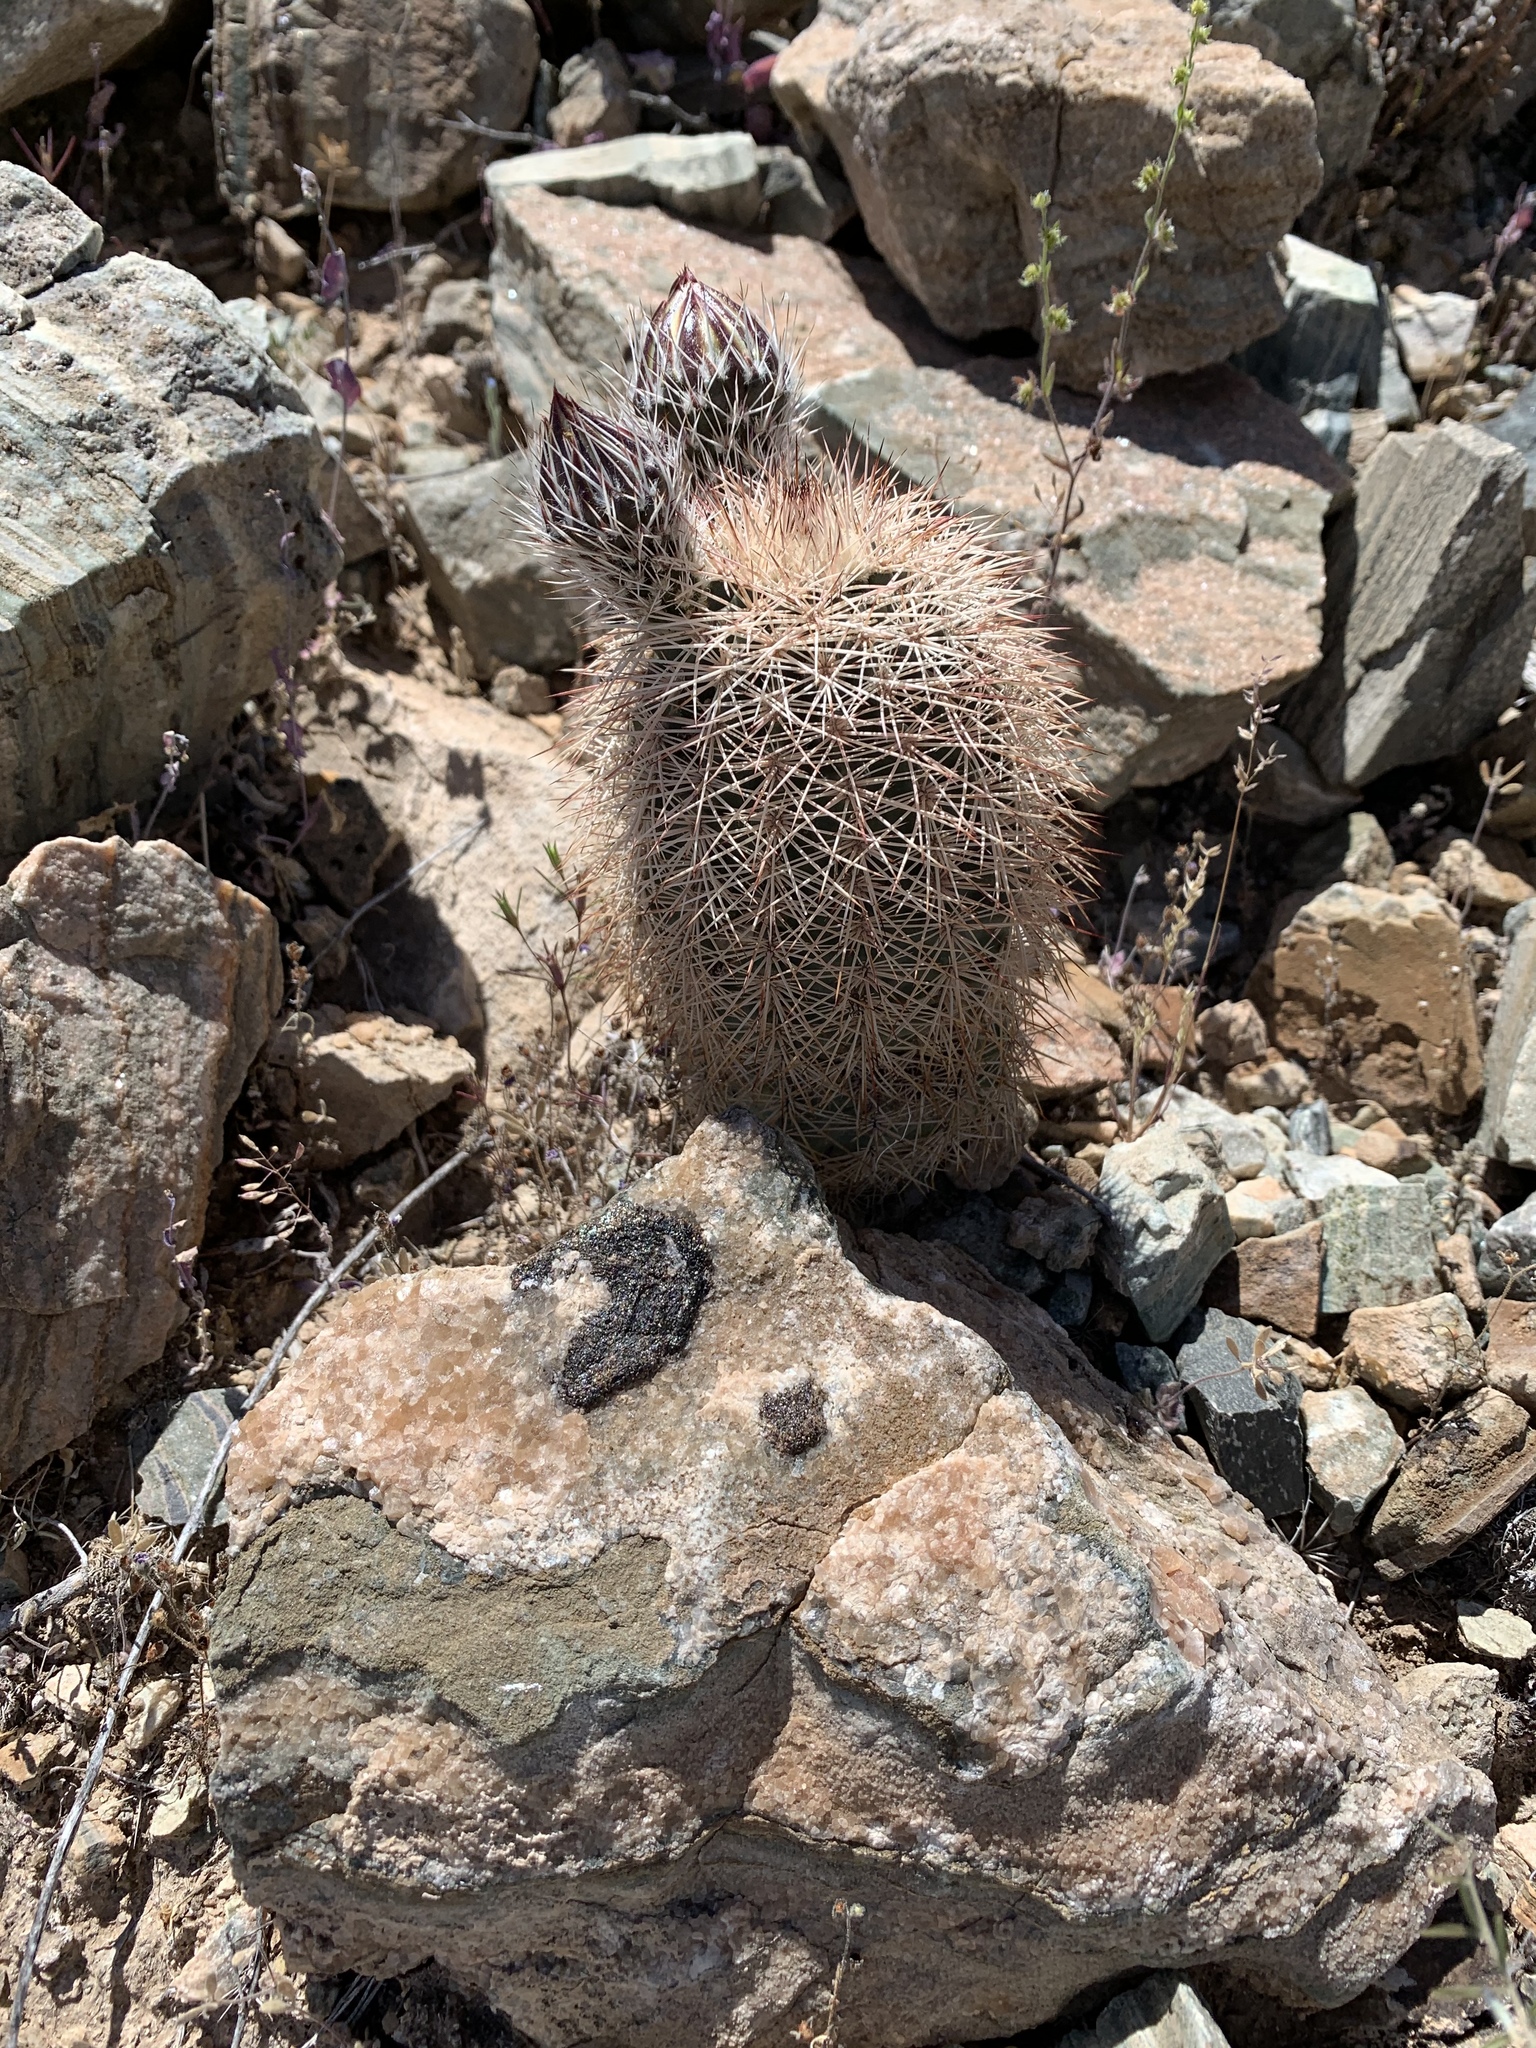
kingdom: Plantae
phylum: Tracheophyta
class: Magnoliopsida
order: Caryophyllales
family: Cactaceae
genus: Echinocereus
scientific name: Echinocereus dasyacanthus
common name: Spiny hedgehog cactus
